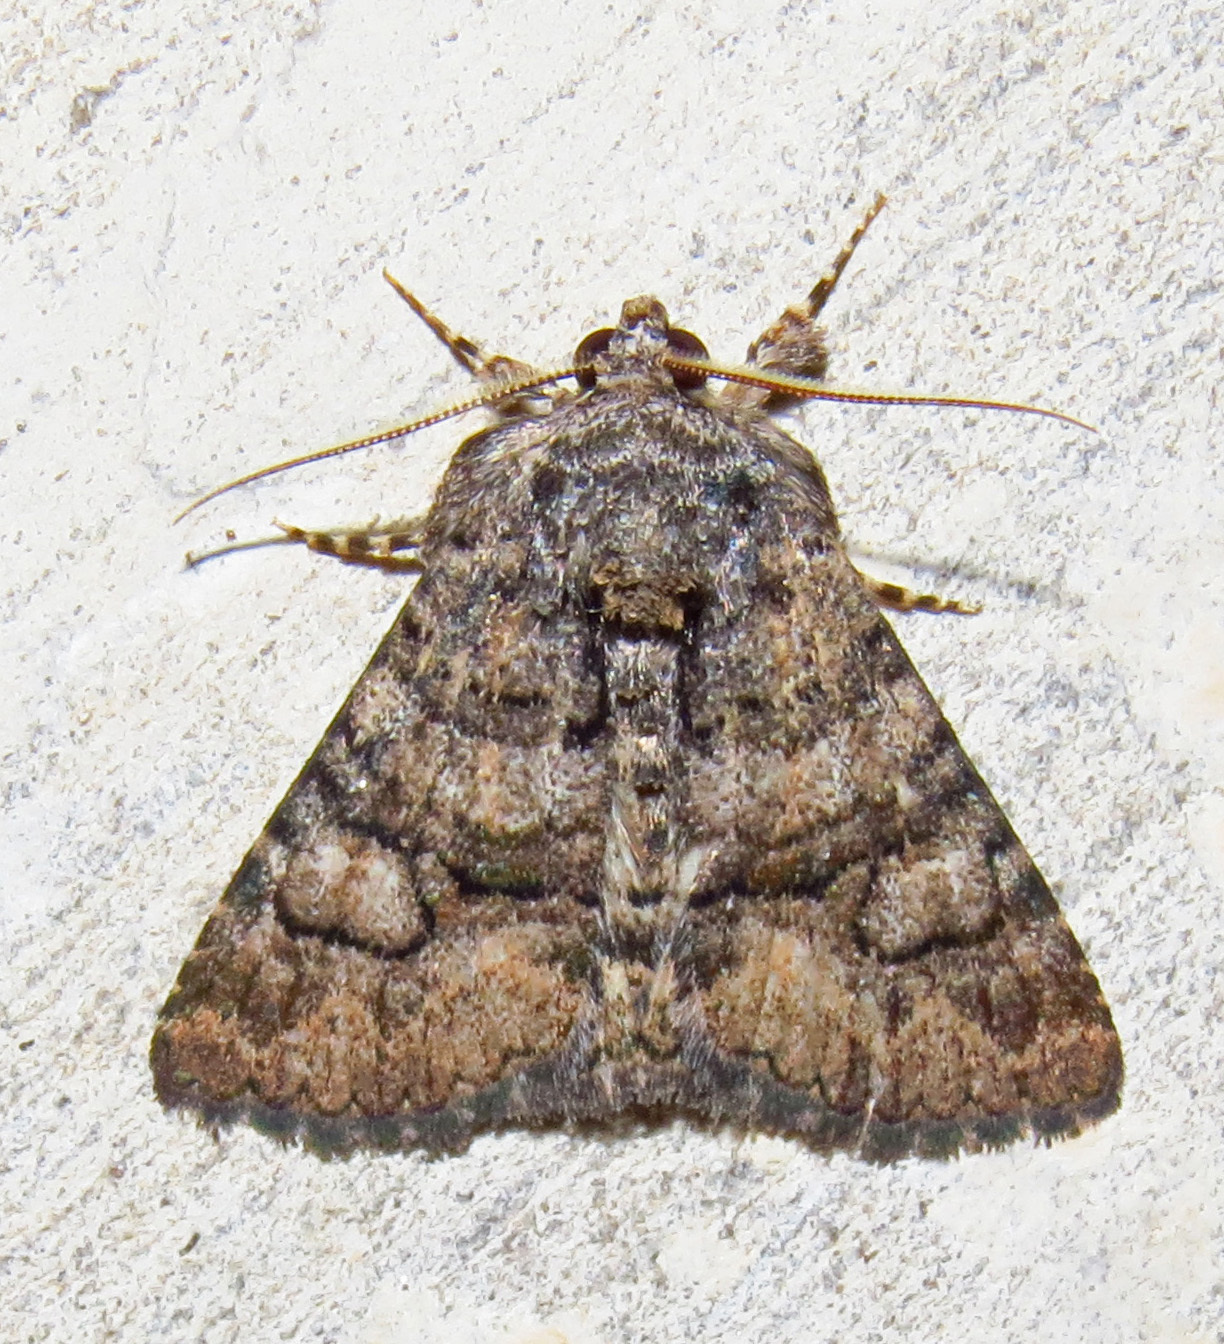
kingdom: Animalia
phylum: Arthropoda
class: Insecta
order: Lepidoptera
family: Erebidae
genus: Elousa
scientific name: Elousa mima
